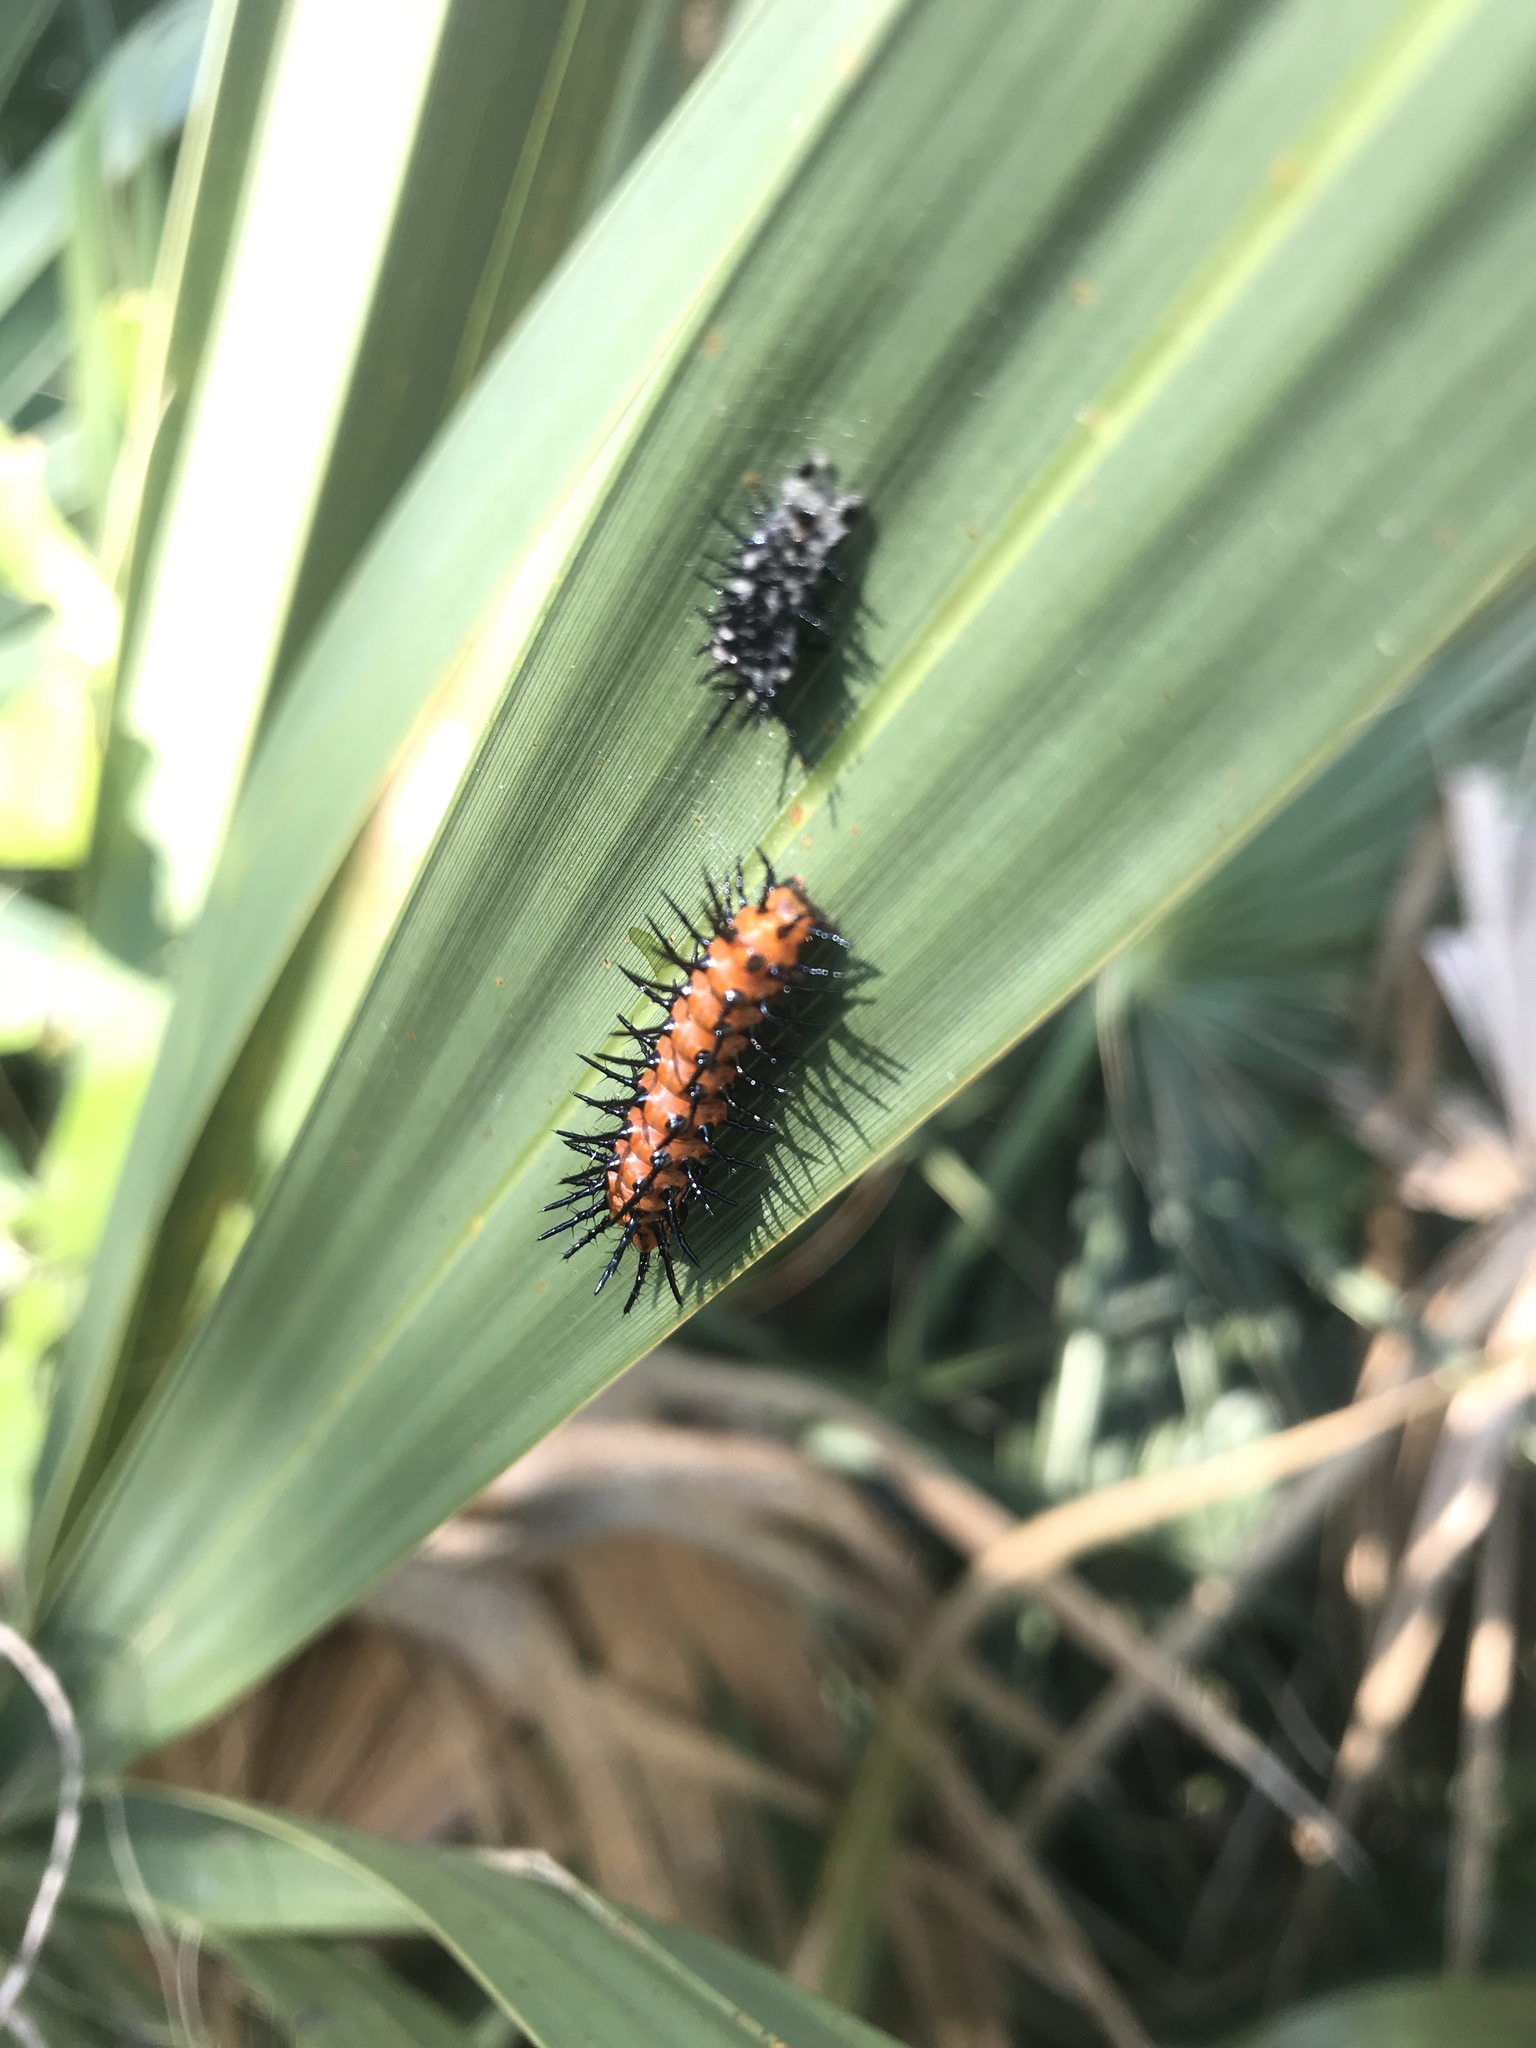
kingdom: Animalia
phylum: Arthropoda
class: Insecta
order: Lepidoptera
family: Nymphalidae
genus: Dione
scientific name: Dione vanillae
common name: Gulf fritillary
